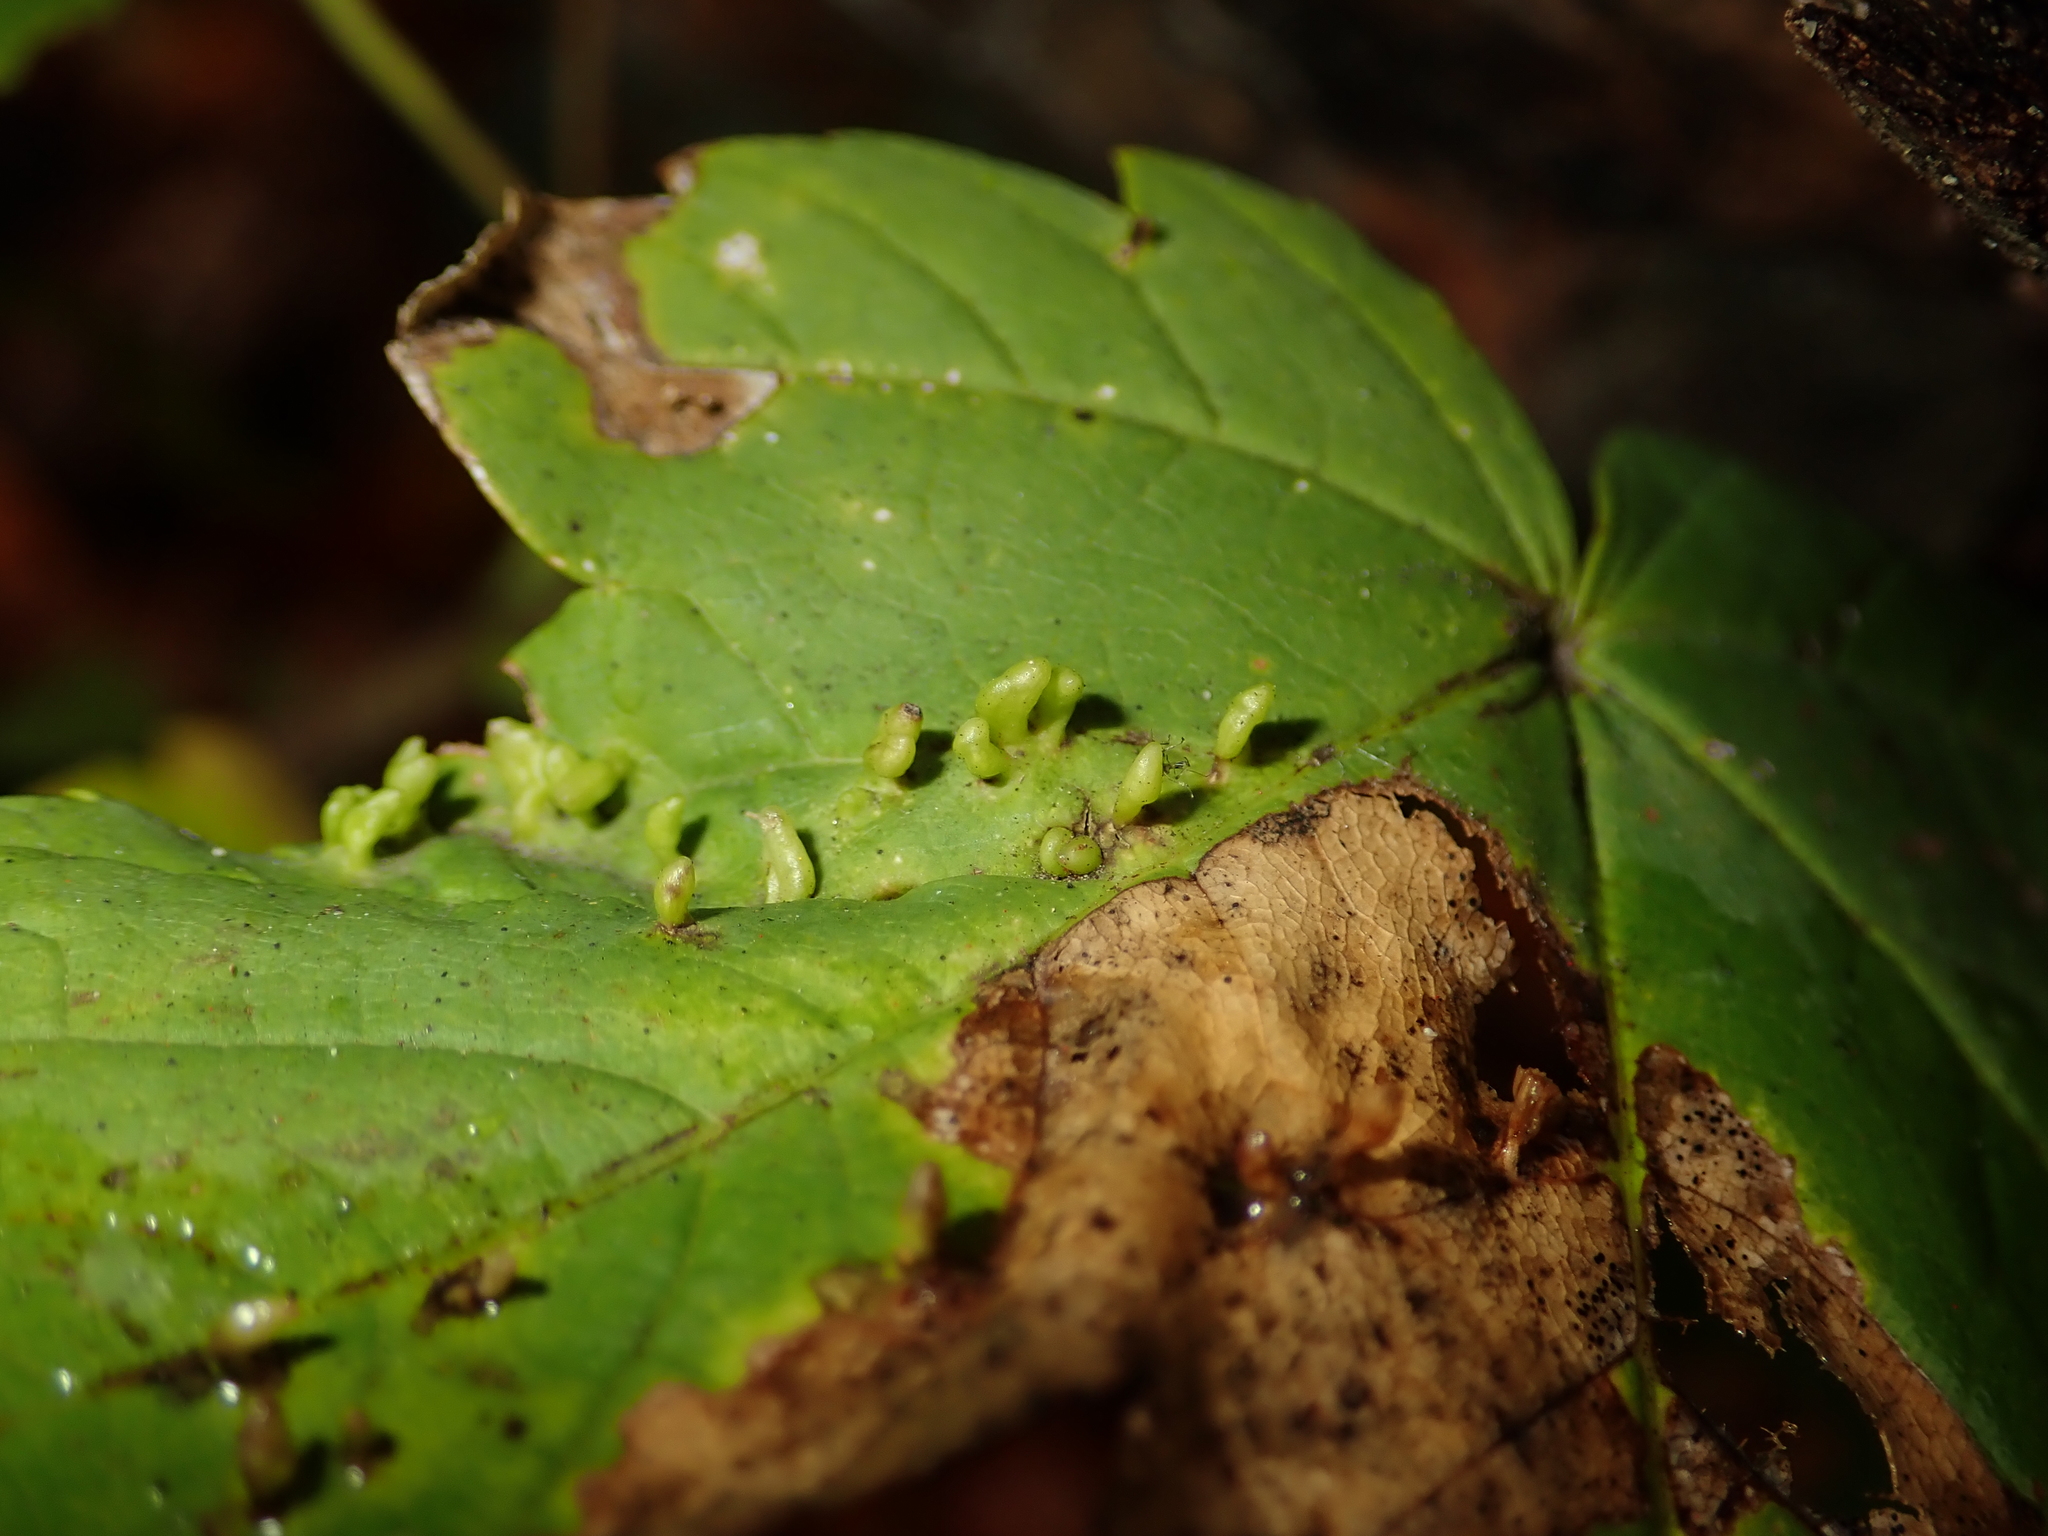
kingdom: Animalia
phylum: Arthropoda
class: Arachnida
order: Trombidiformes
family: Eriophyidae
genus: Aceria
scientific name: Aceria cephaloneus
